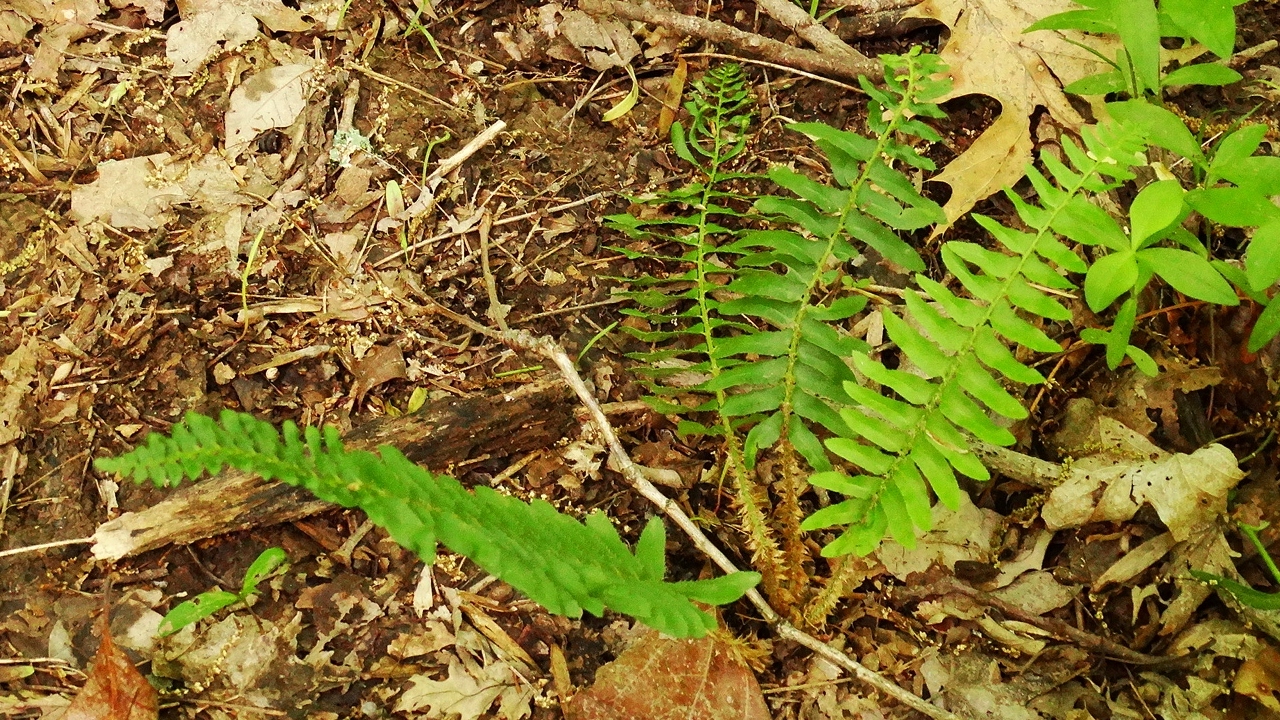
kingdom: Plantae
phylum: Tracheophyta
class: Polypodiopsida
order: Polypodiales
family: Dryopteridaceae
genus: Polystichum
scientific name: Polystichum acrostichoides
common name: Christmas fern
